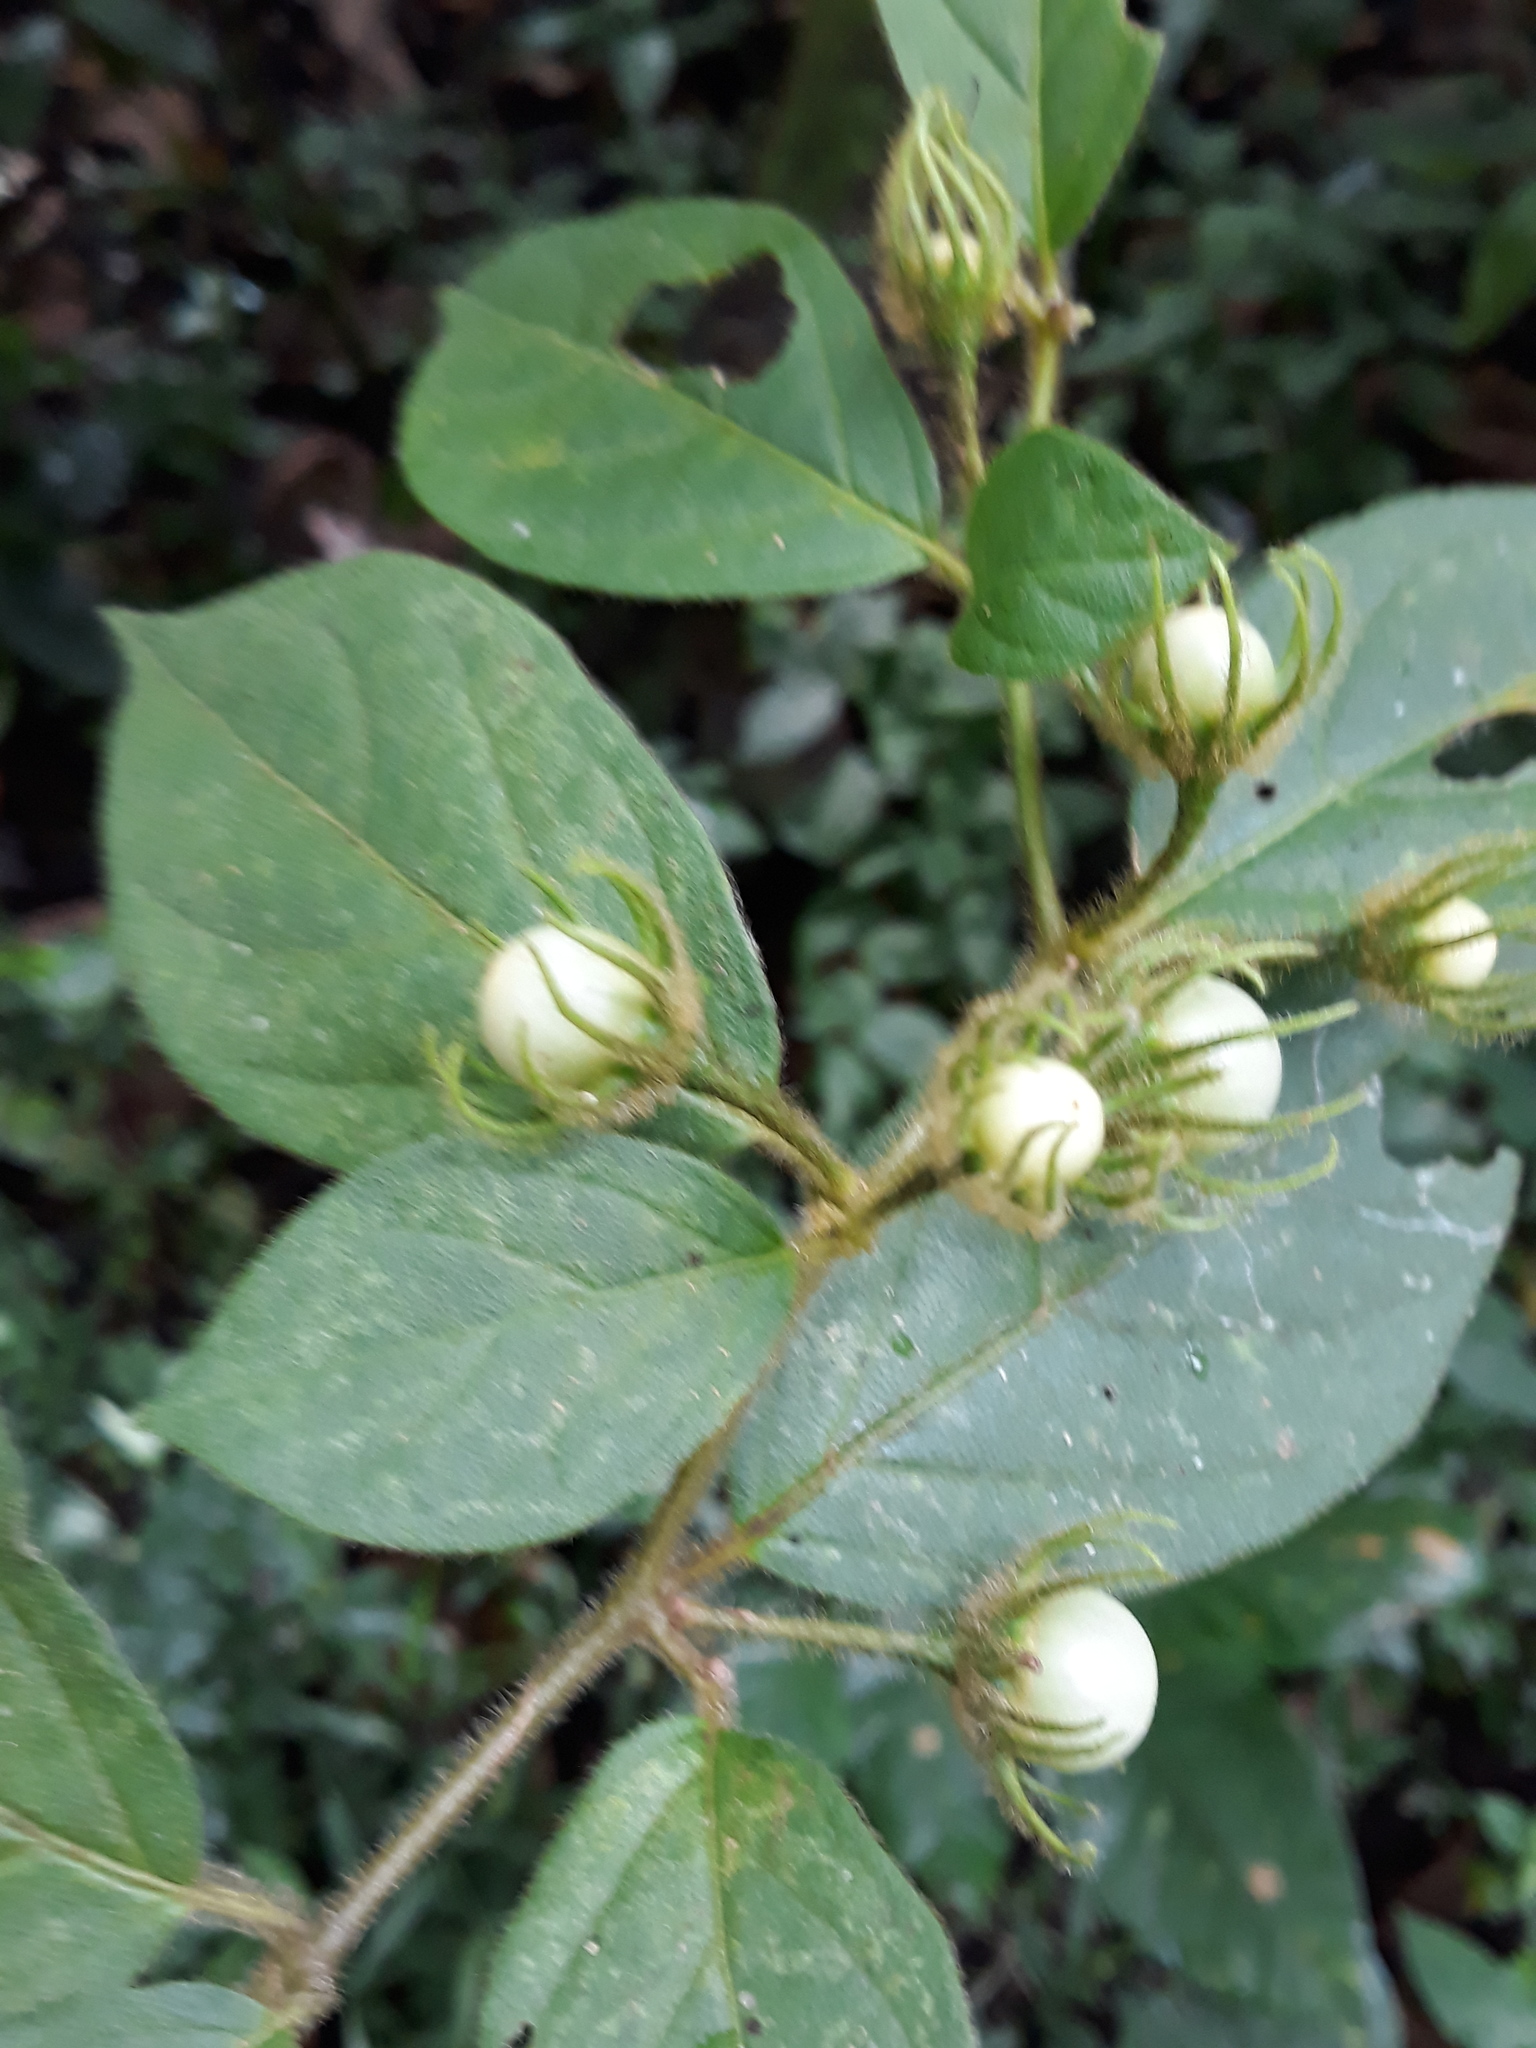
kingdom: Plantae
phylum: Tracheophyta
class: Magnoliopsida
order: Solanales
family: Solanaceae
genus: Lycianthes
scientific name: Lycianthes purpusii
